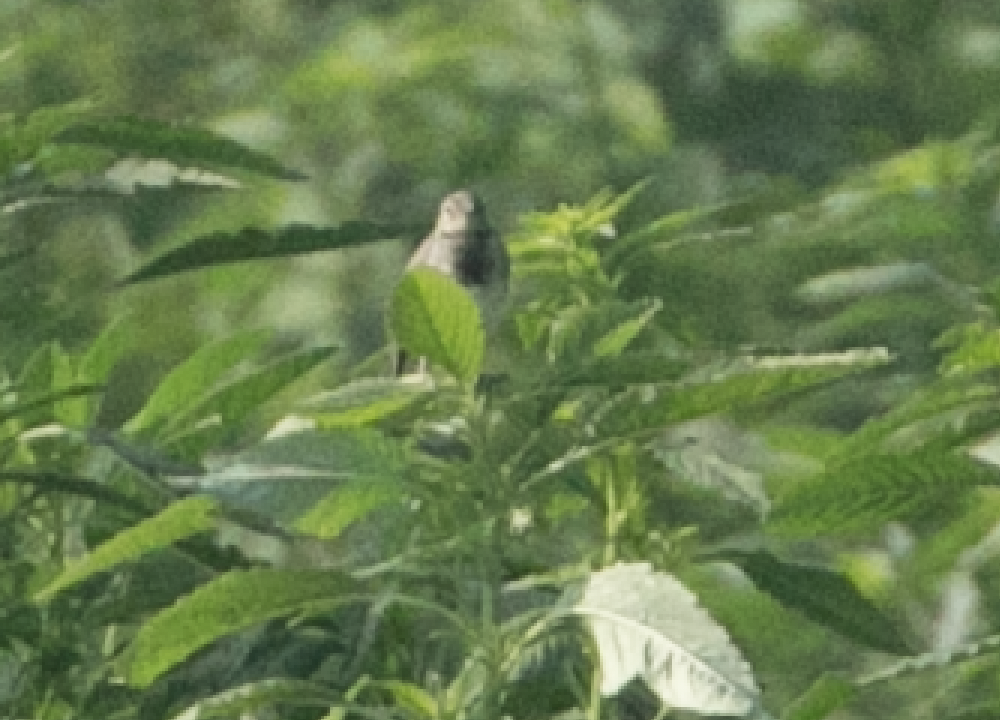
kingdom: Animalia
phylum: Chordata
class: Aves
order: Passeriformes
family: Motacillidae
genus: Motacilla
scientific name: Motacilla alba
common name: White wagtail
